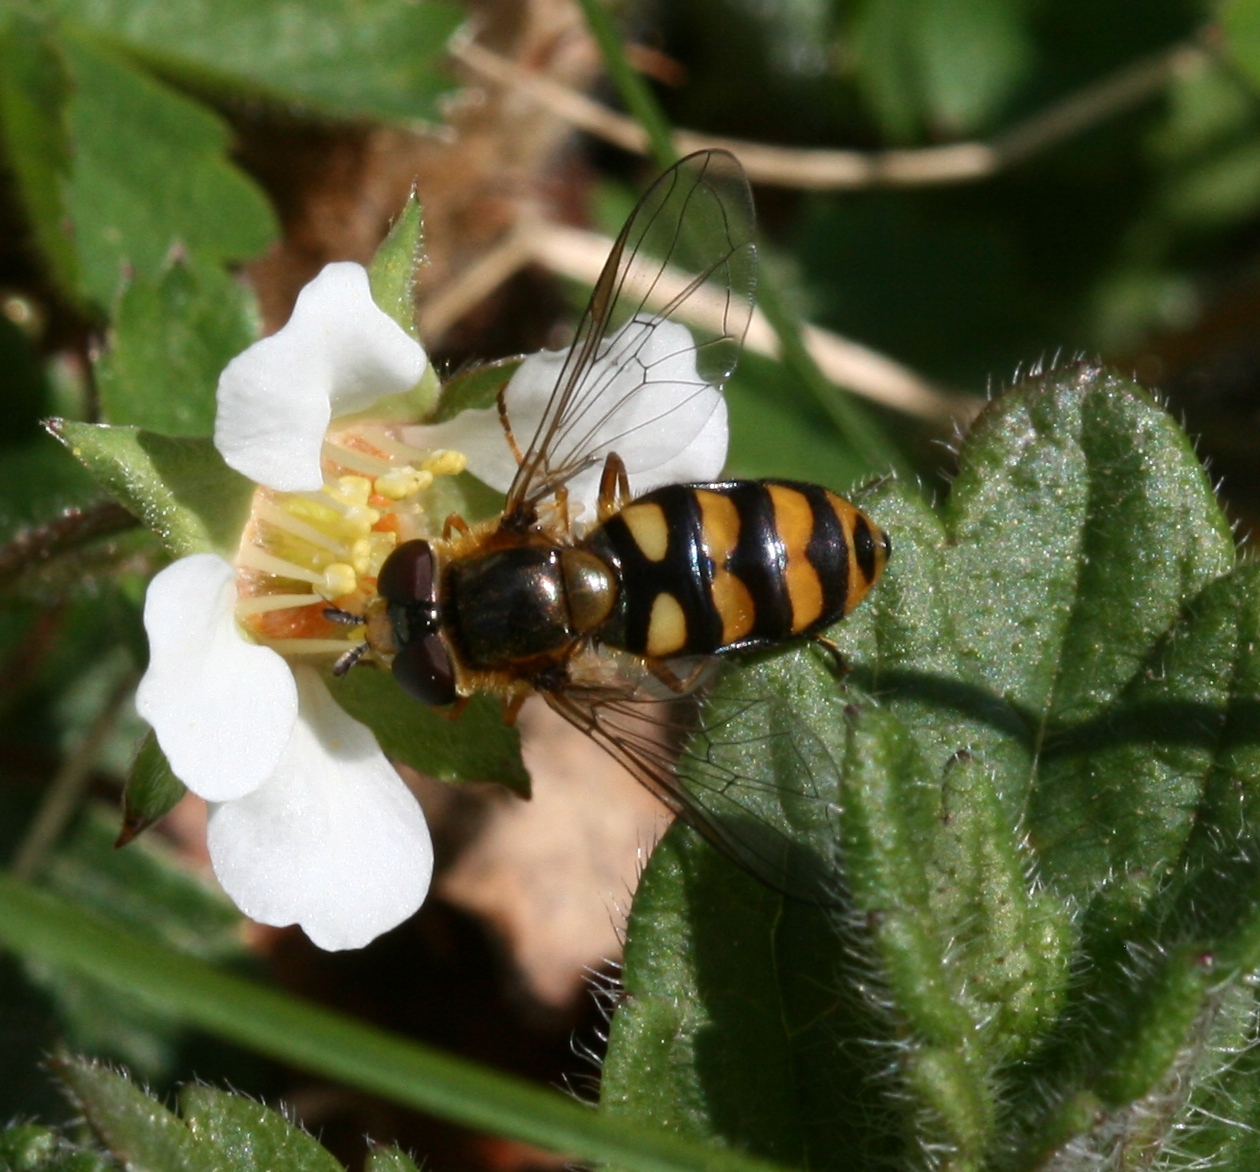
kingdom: Animalia
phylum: Arthropoda
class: Insecta
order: Diptera
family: Syrphidae
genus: Eupeodes
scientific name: Eupeodes latifasciatus
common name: Variable aphideater
